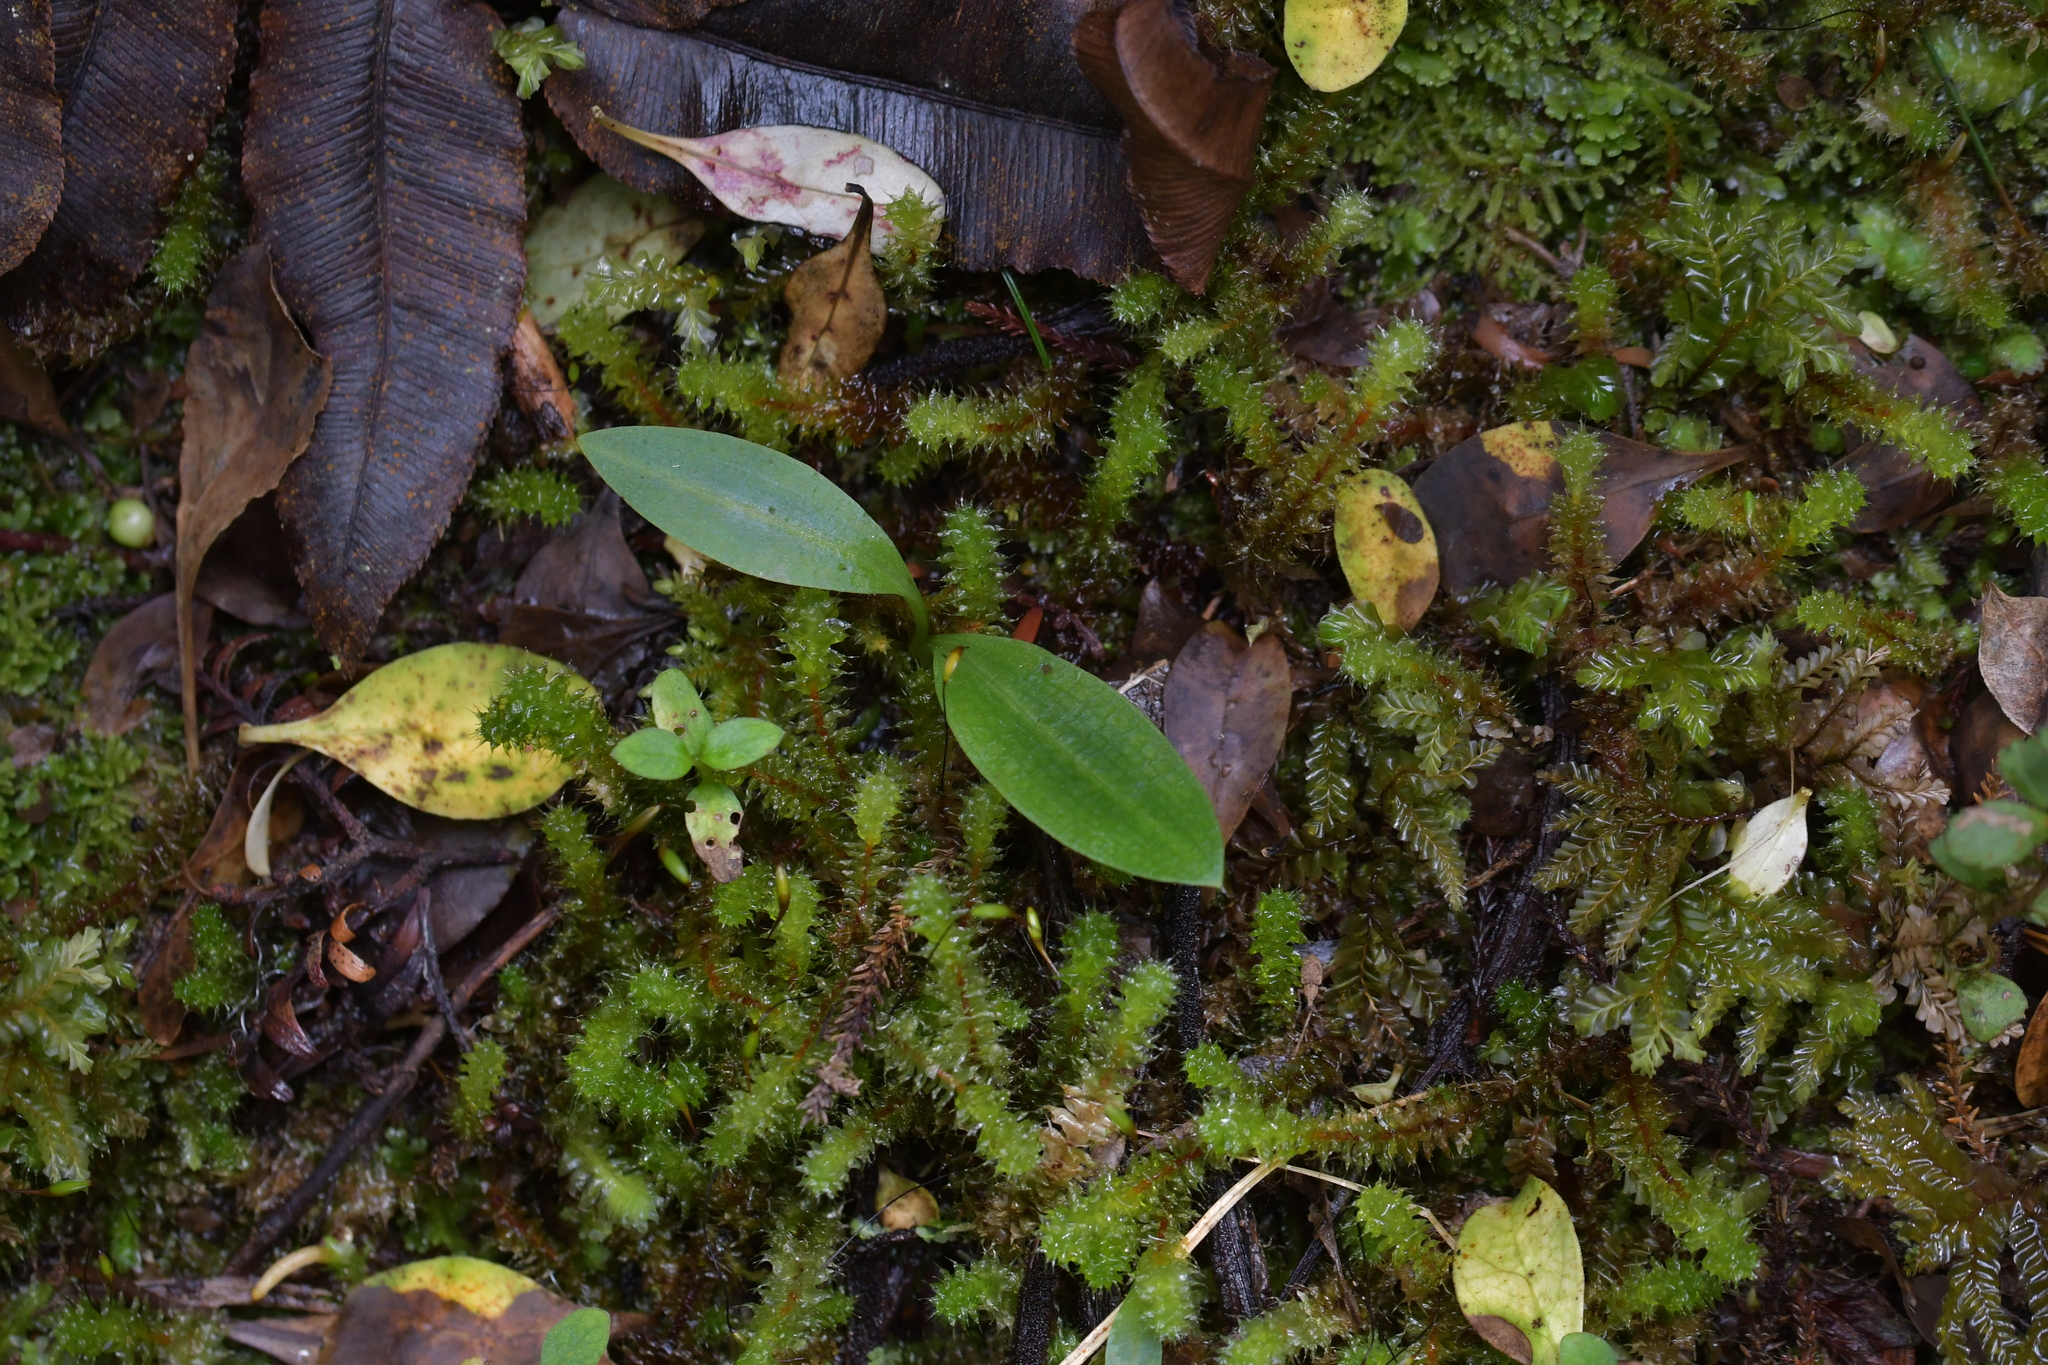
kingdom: Plantae
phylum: Tracheophyta
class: Liliopsida
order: Asparagales
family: Orchidaceae
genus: Chiloglottis
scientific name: Chiloglottis cornuta
